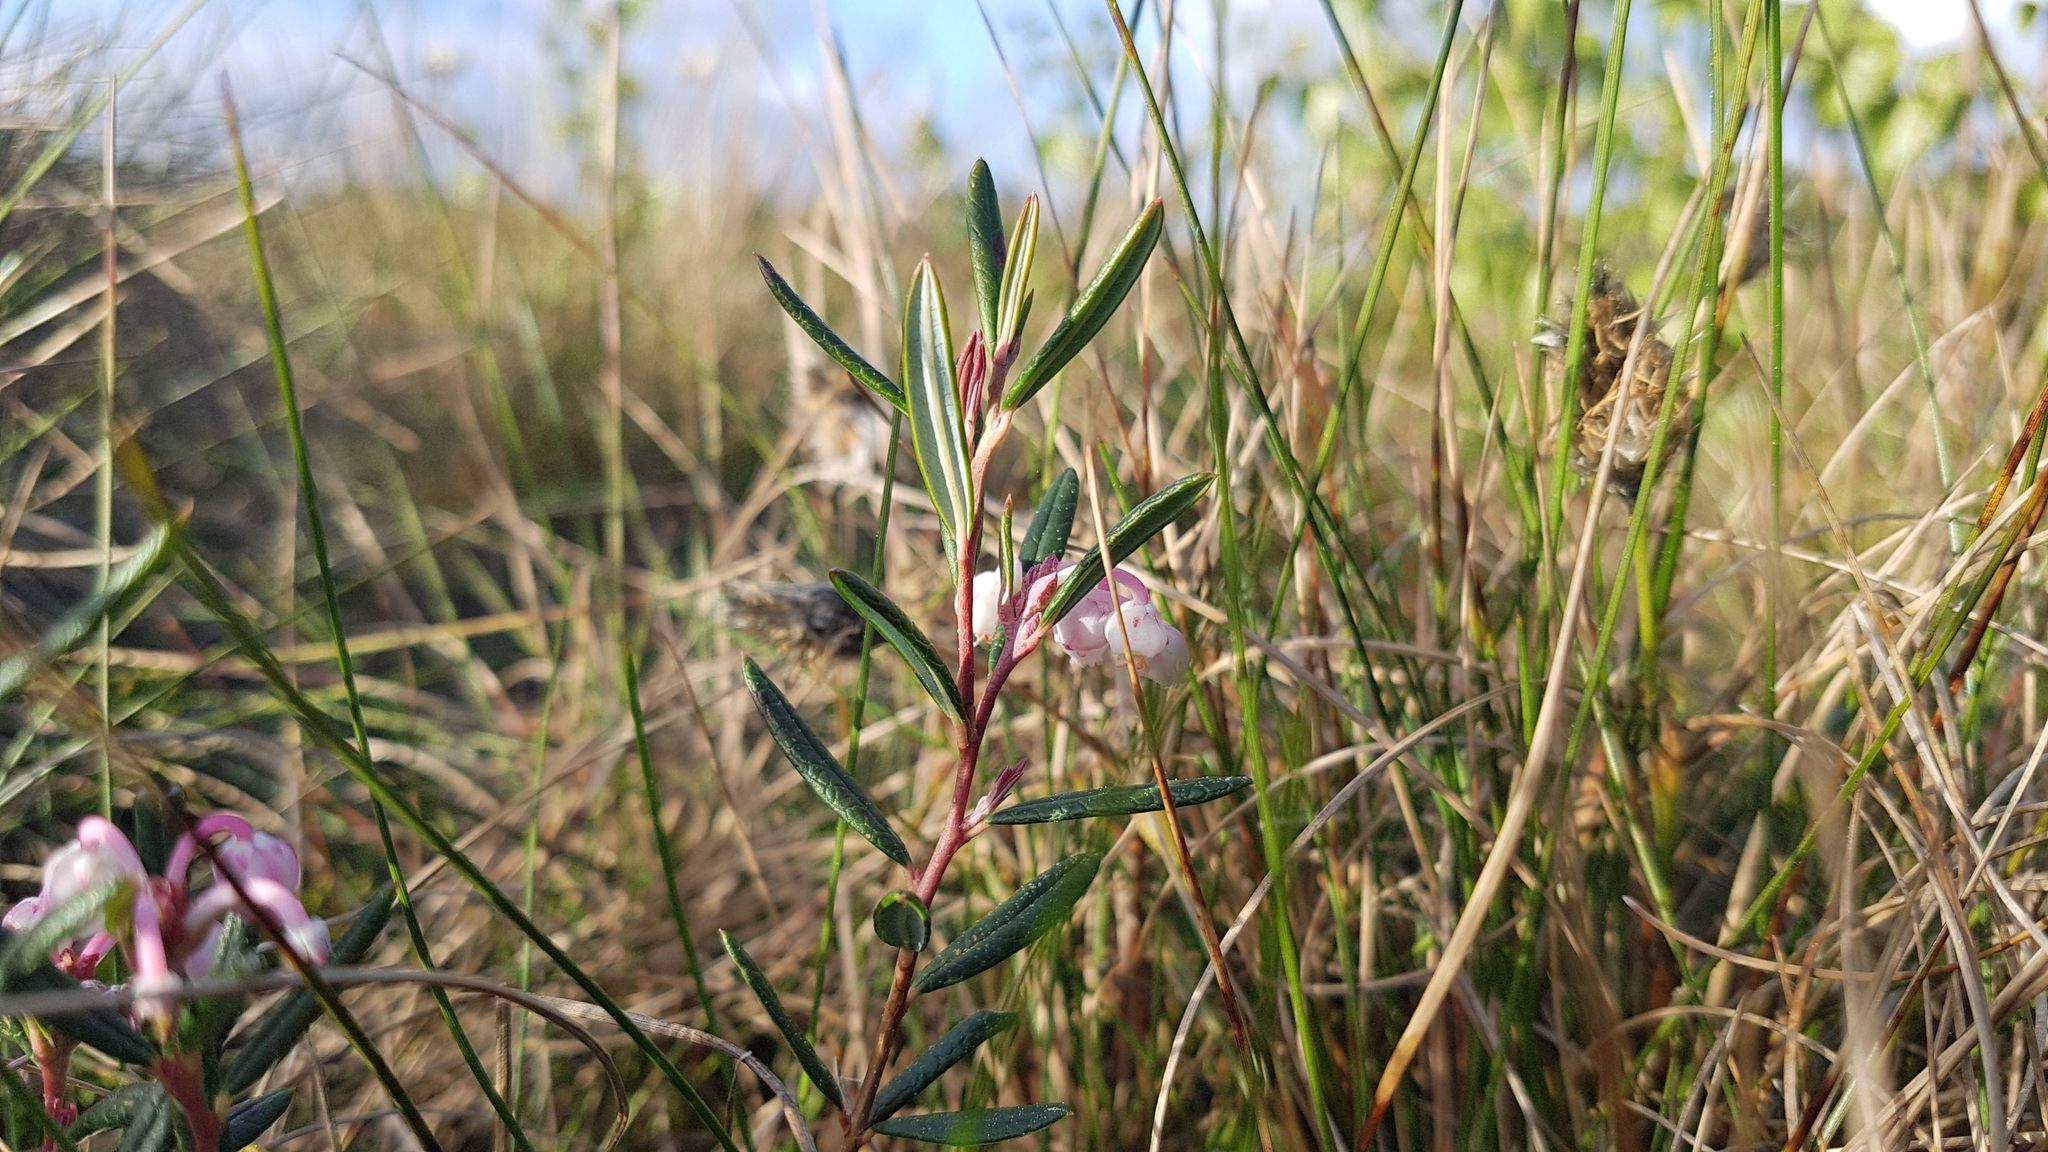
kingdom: Plantae
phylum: Tracheophyta
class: Magnoliopsida
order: Ericales
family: Ericaceae
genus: Andromeda
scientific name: Andromeda polifolia
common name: Bog-rosemary
